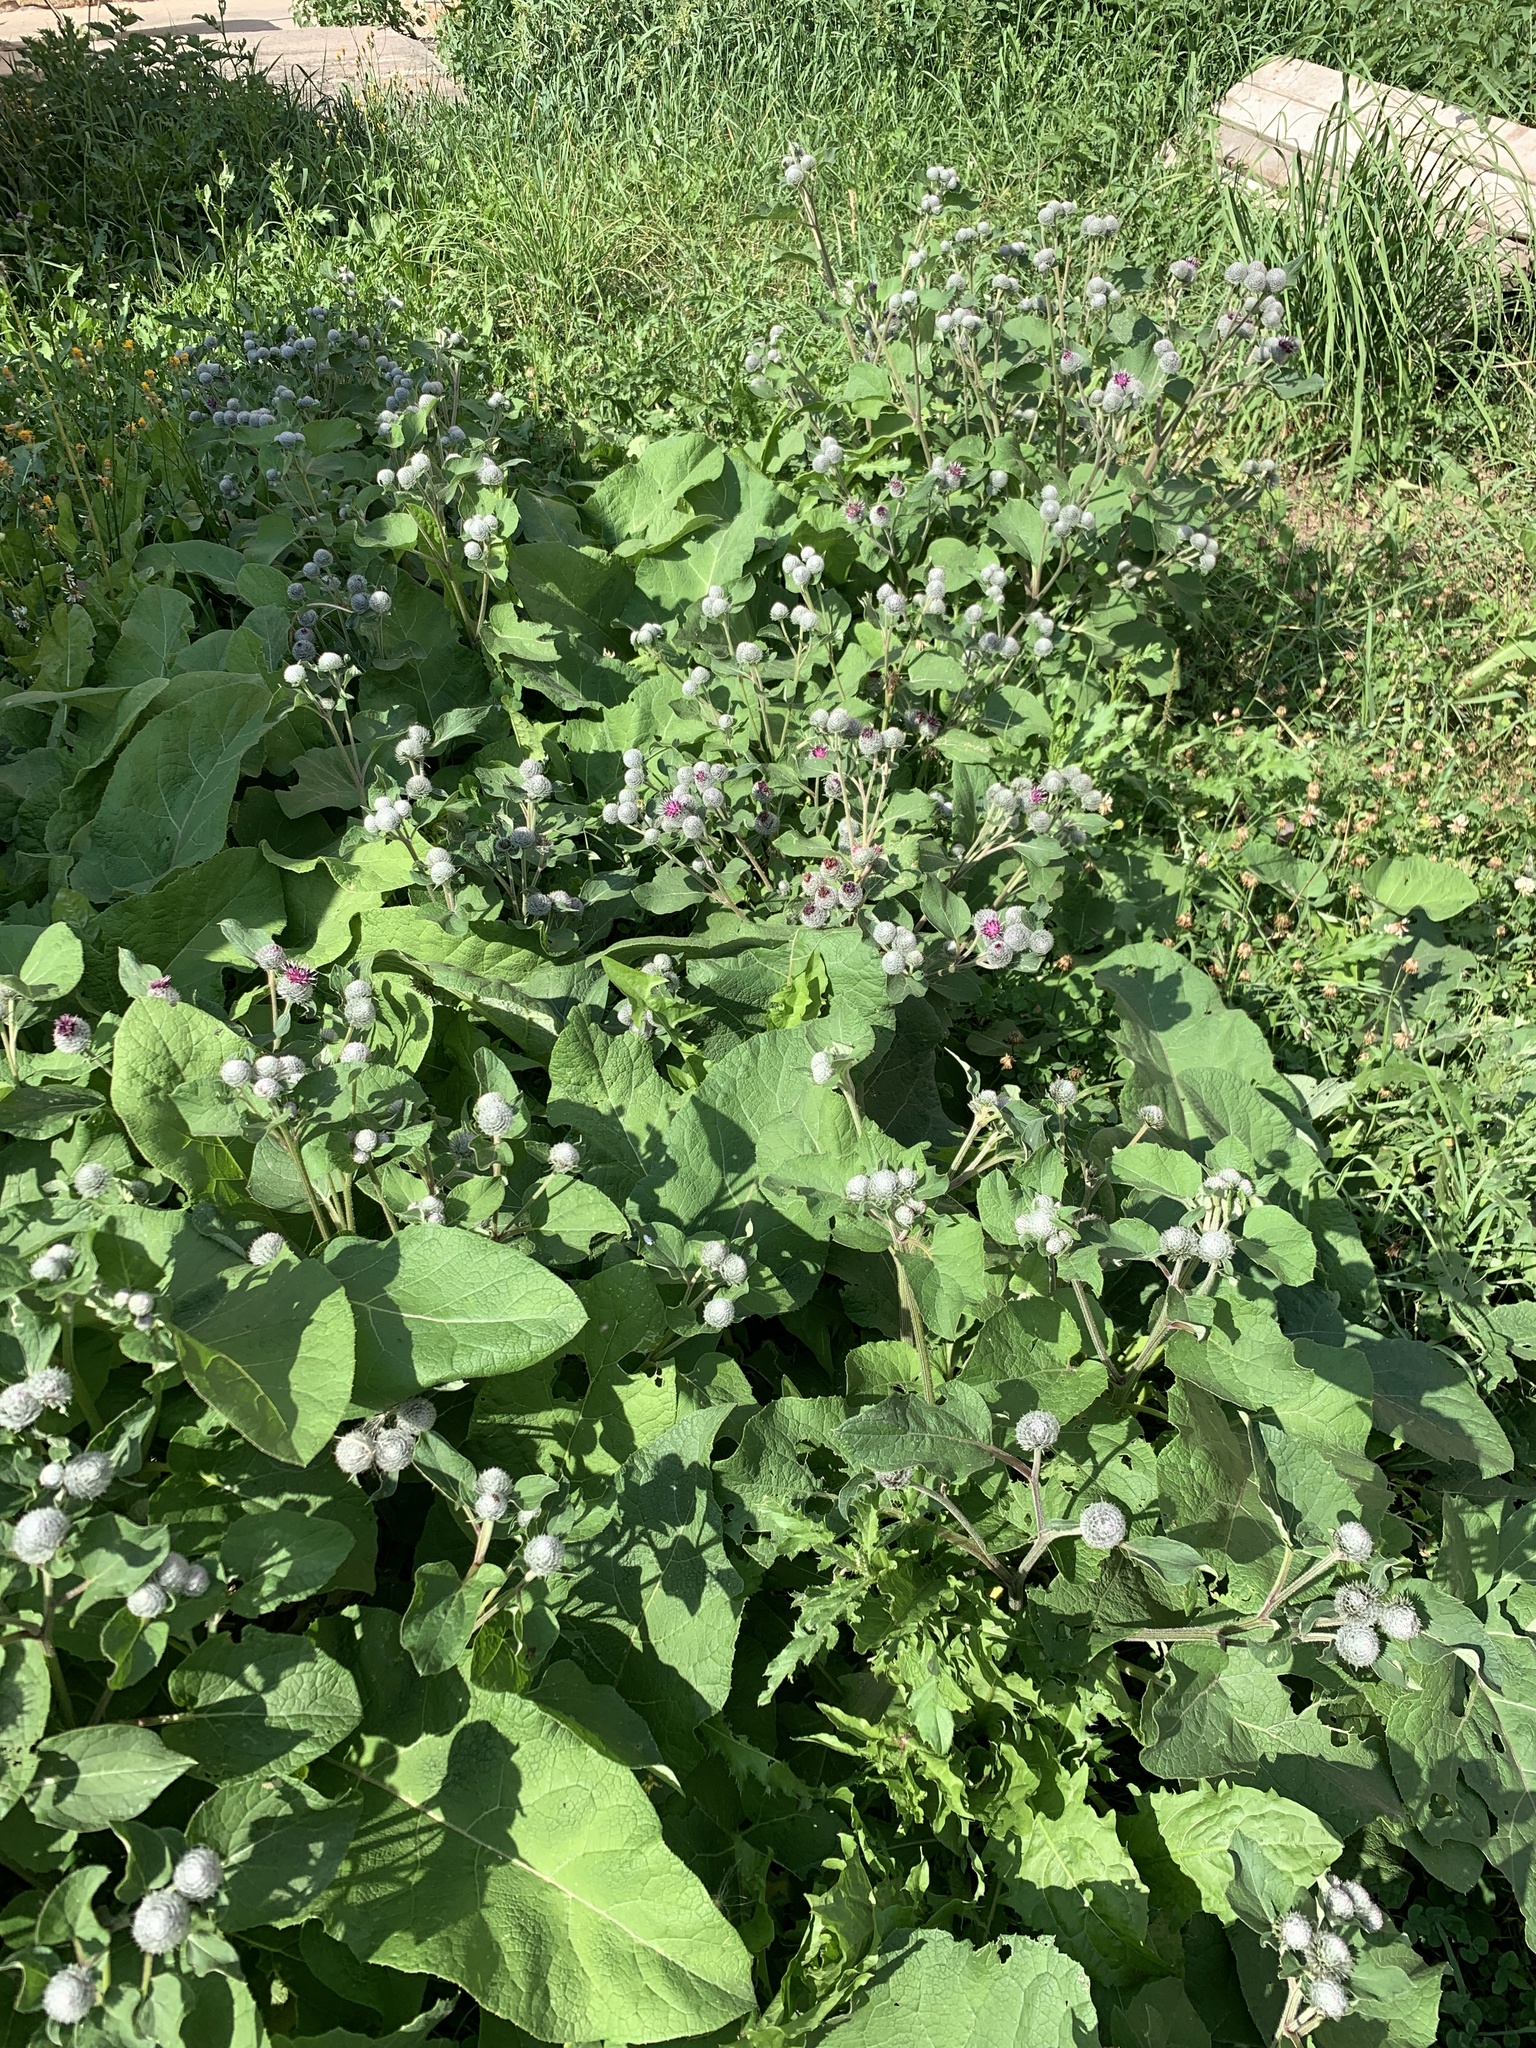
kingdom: Plantae
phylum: Tracheophyta
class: Magnoliopsida
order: Asterales
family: Asteraceae
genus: Arctium
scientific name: Arctium tomentosum
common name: Woolly burdock
